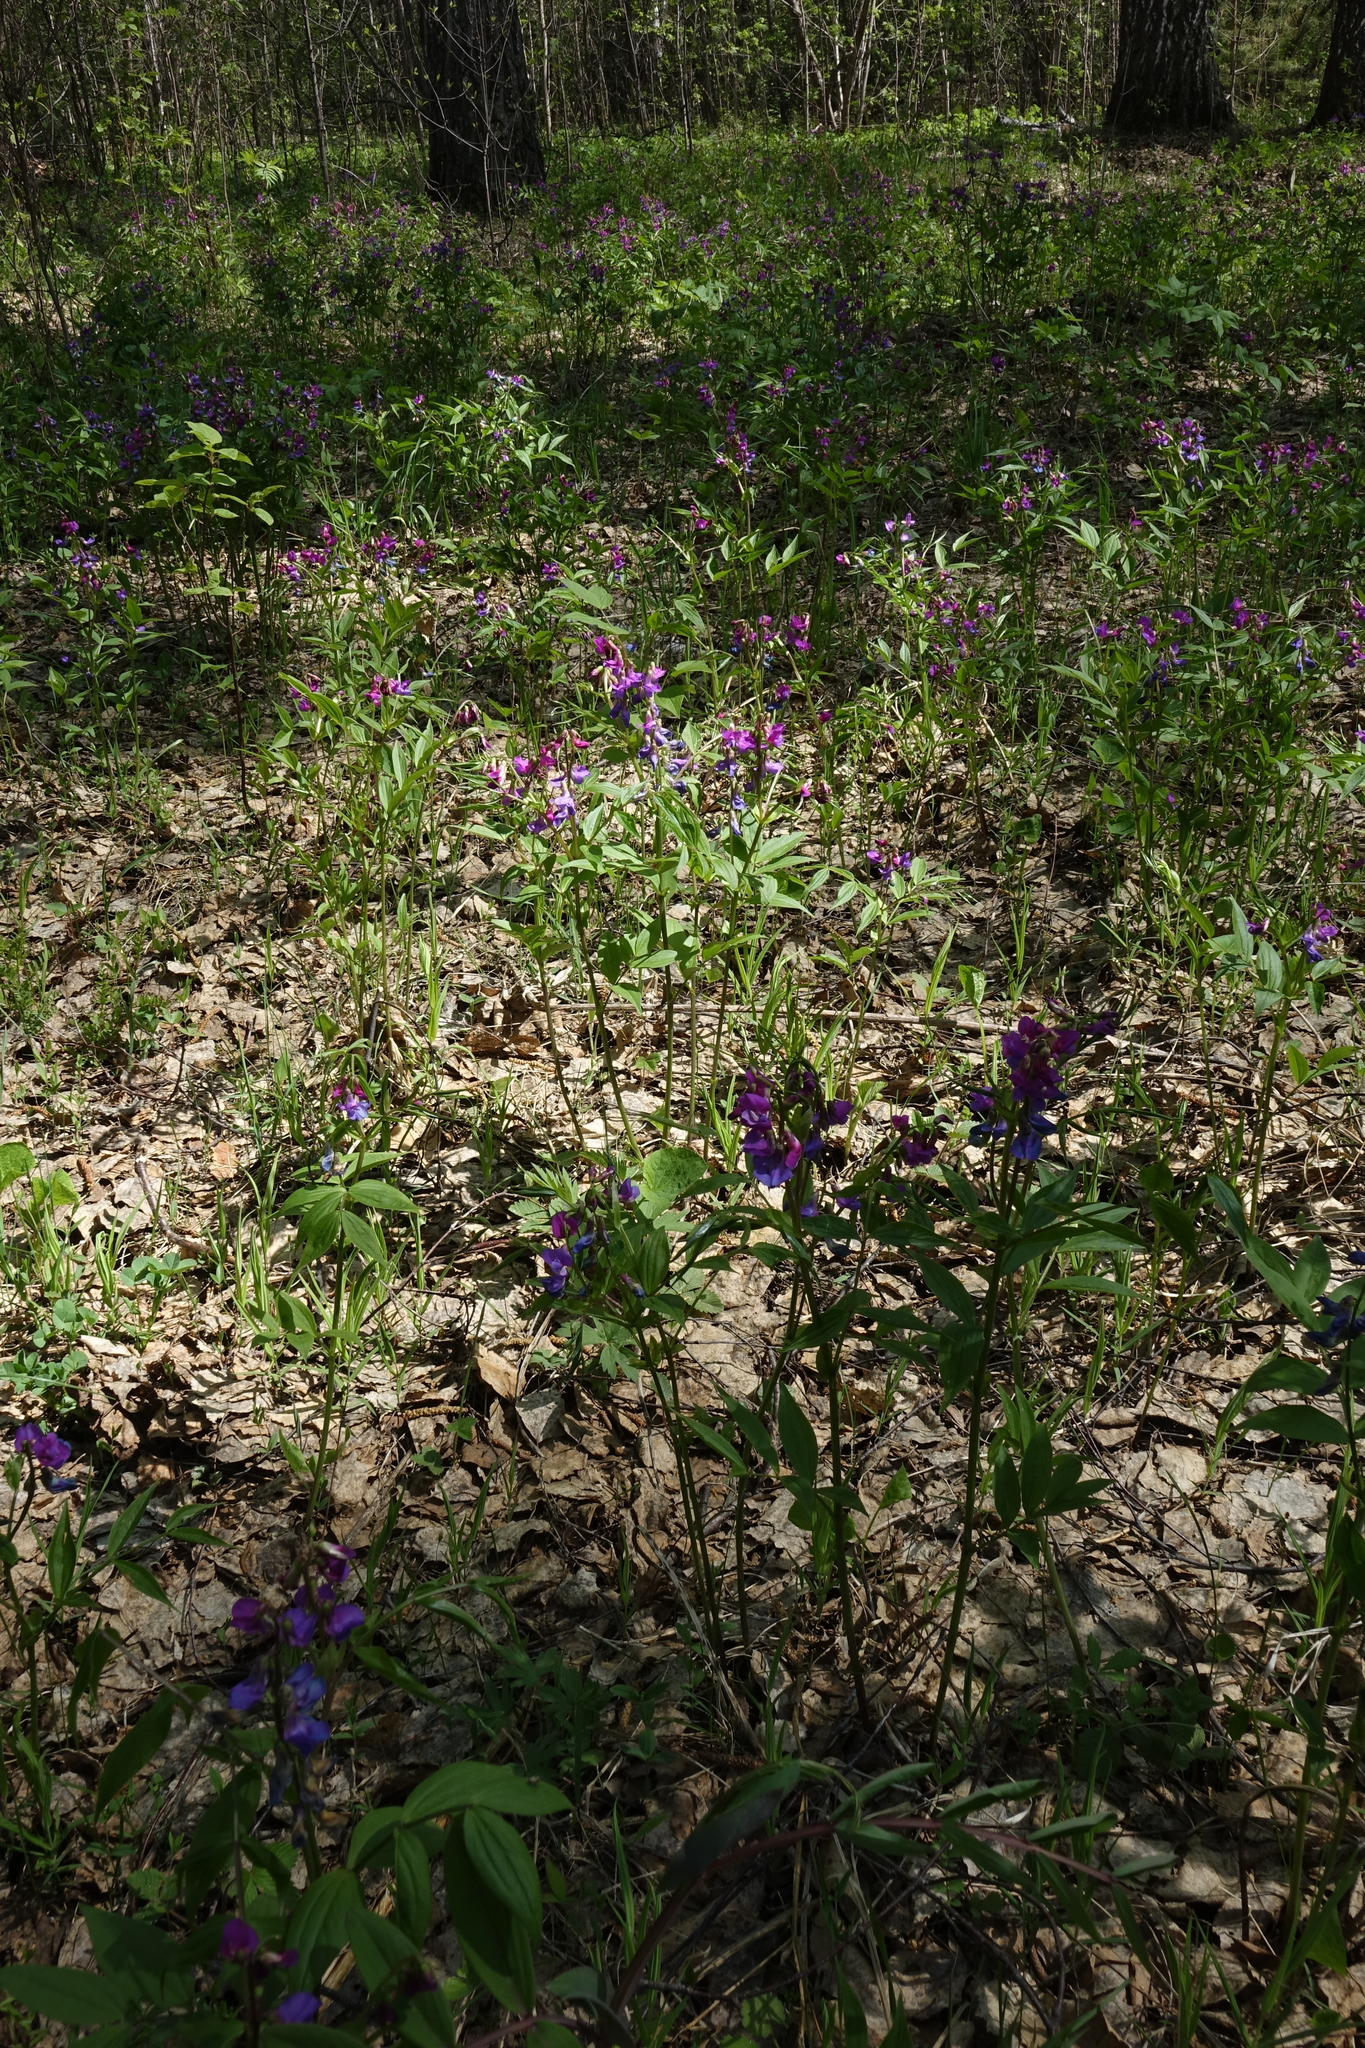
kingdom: Plantae
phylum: Tracheophyta
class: Magnoliopsida
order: Fabales
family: Fabaceae
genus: Lathyrus
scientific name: Lathyrus vernus
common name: Spring pea
